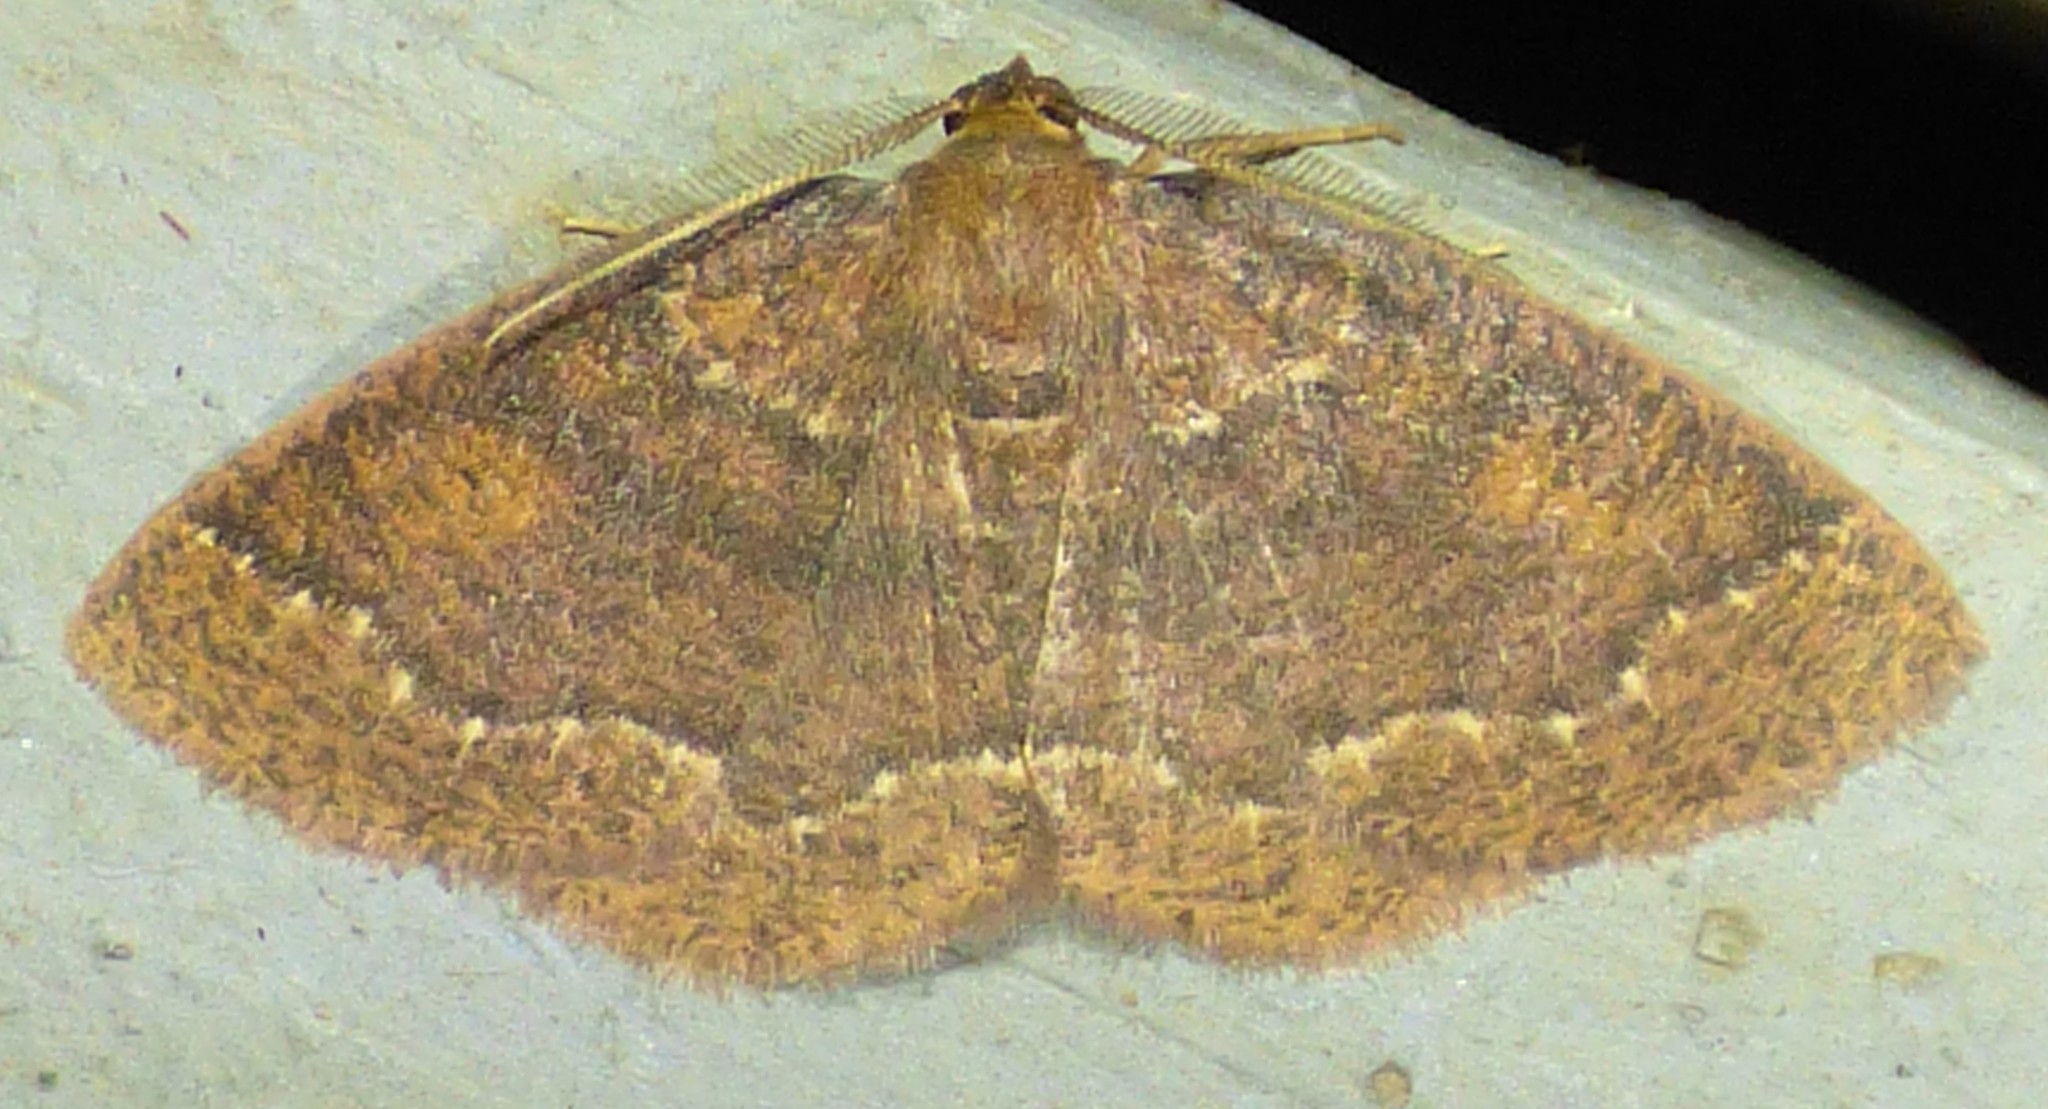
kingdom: Animalia
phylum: Arthropoda
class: Insecta
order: Lepidoptera
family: Geometridae
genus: Ilexia
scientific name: Ilexia intractata
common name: Black-dotted ruddy moth
